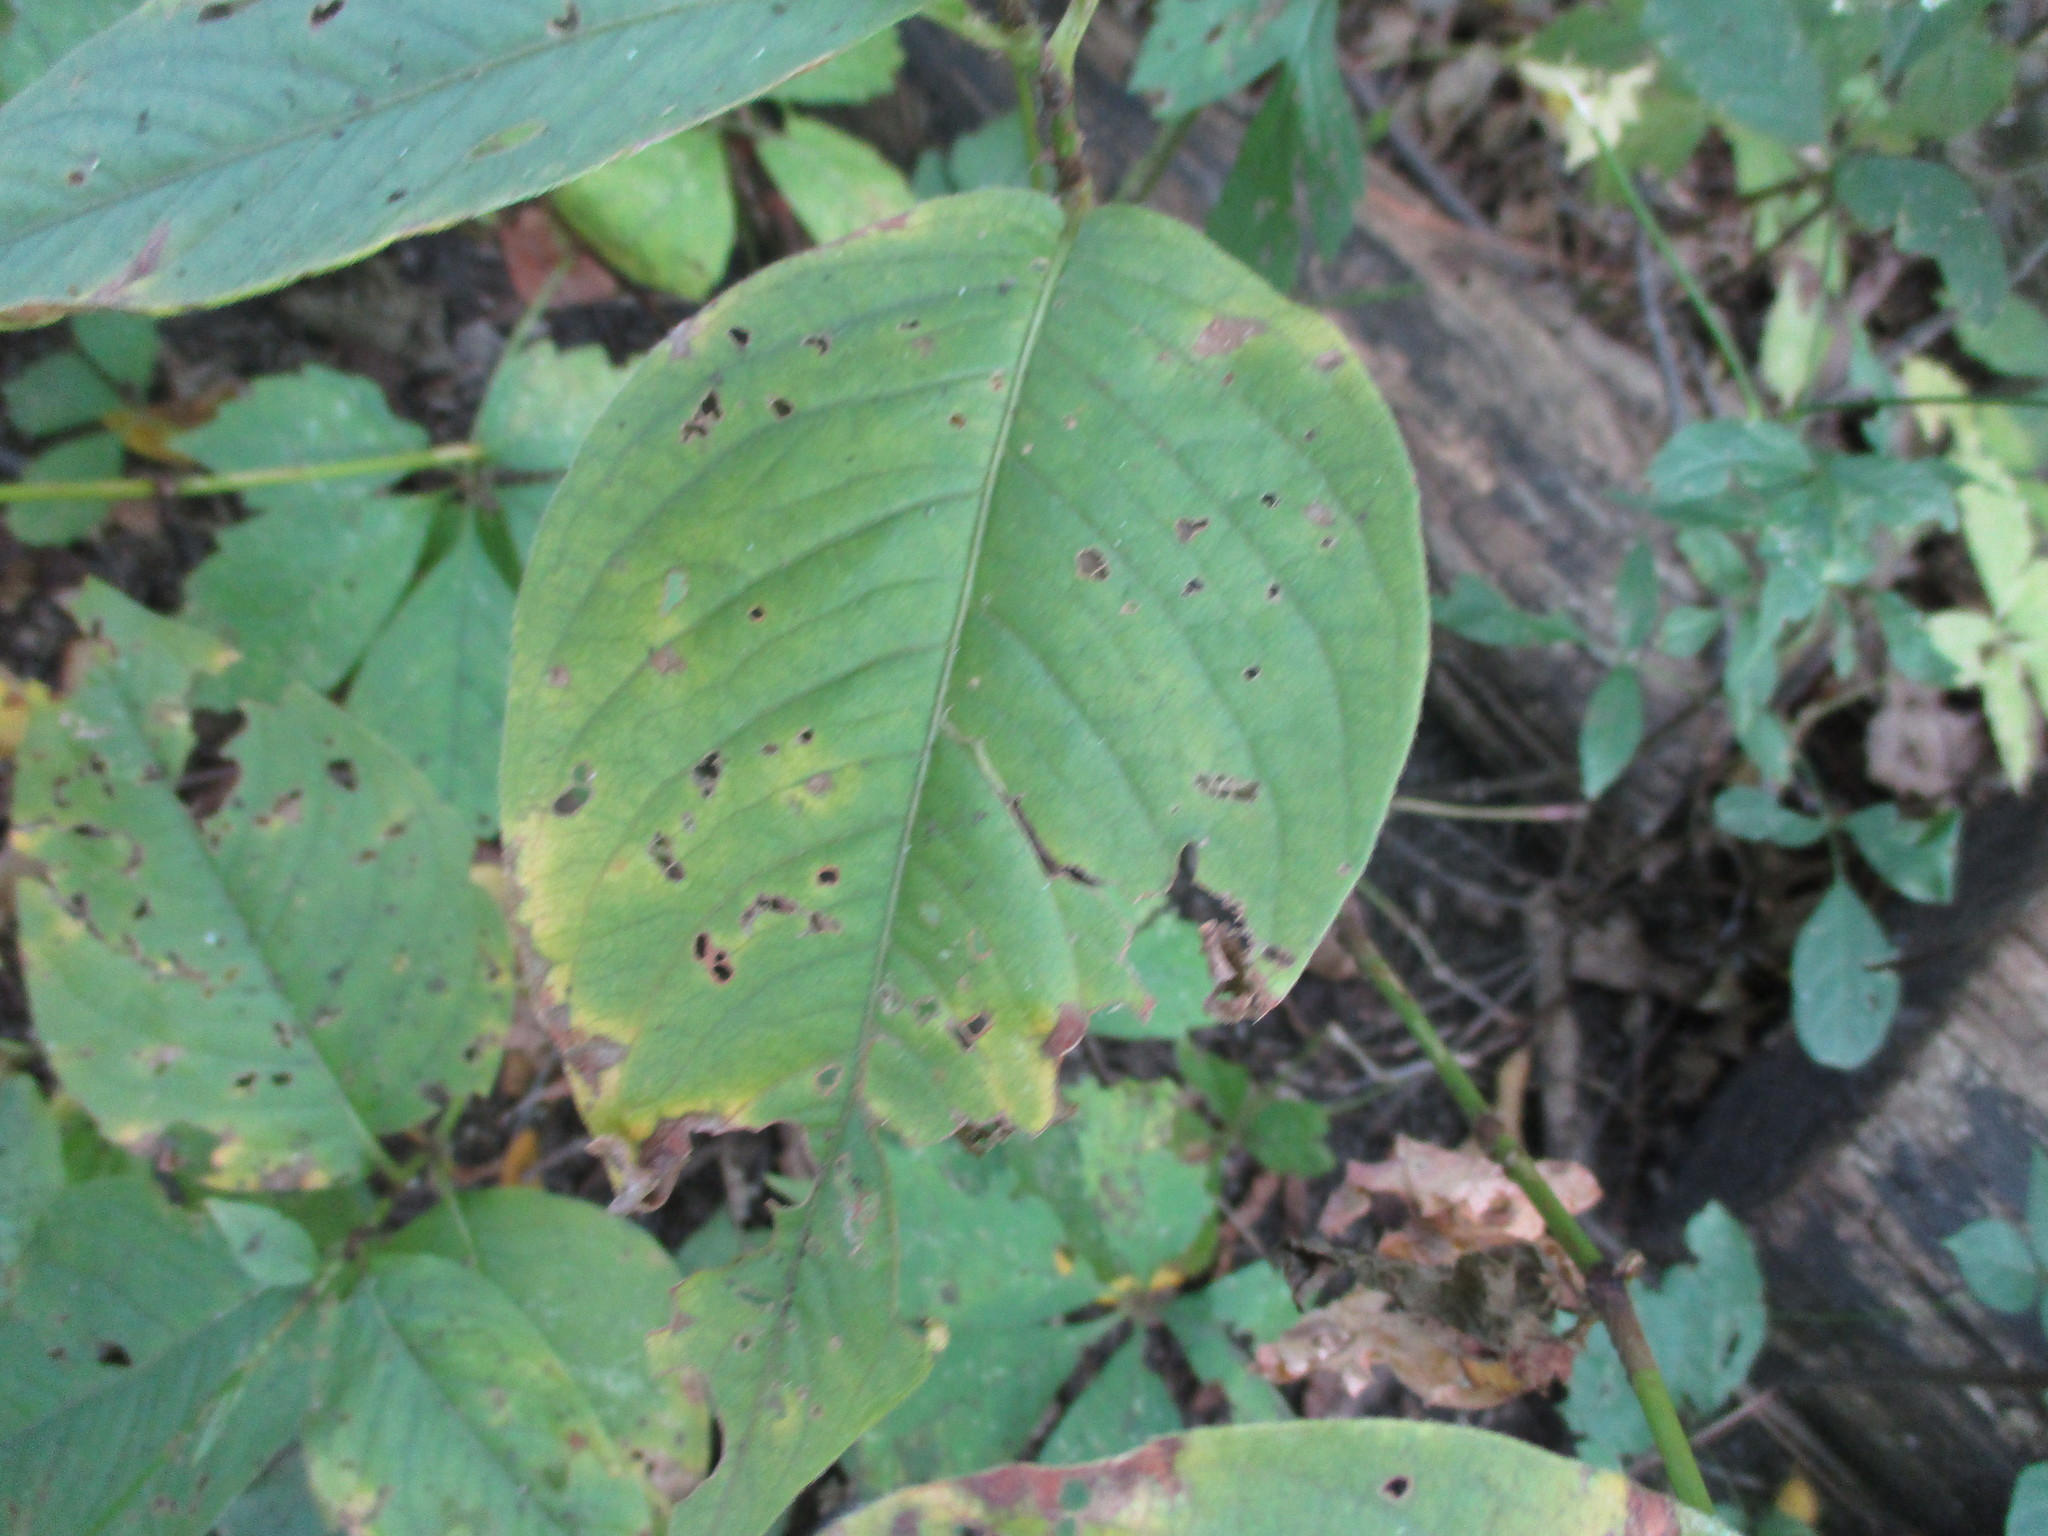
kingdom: Plantae
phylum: Tracheophyta
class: Magnoliopsida
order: Caryophyllales
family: Polygonaceae
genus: Persicaria
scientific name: Persicaria virginiana
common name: Jumpseed
